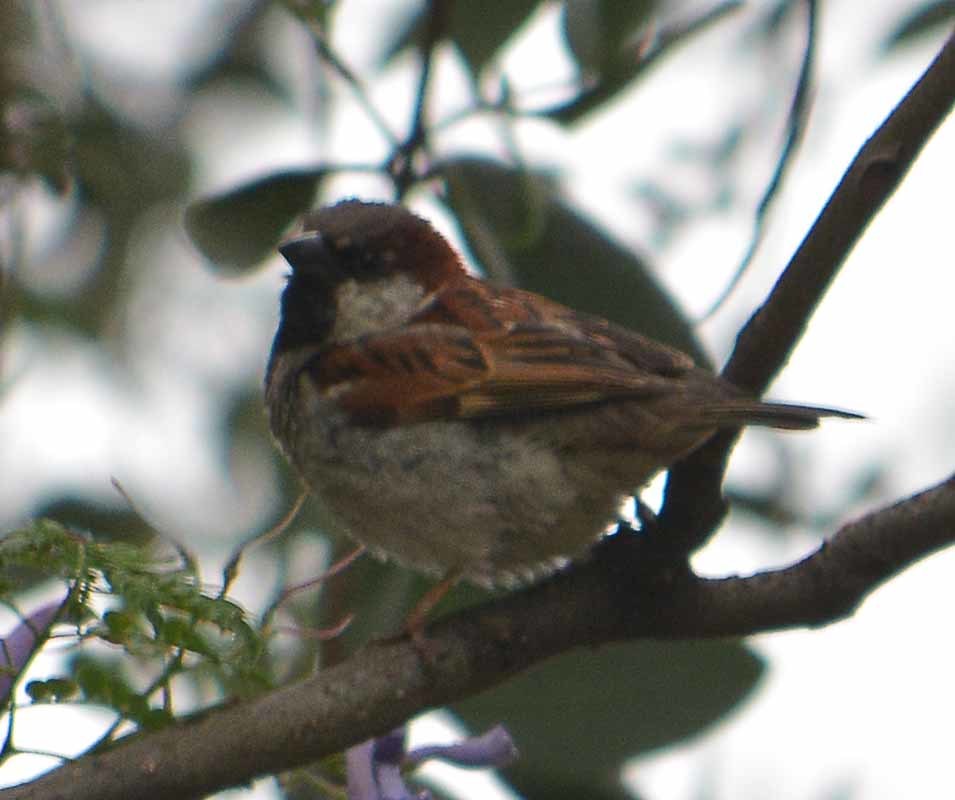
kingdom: Animalia
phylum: Chordata
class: Aves
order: Passeriformes
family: Passeridae
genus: Passer
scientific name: Passer domesticus
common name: House sparrow
